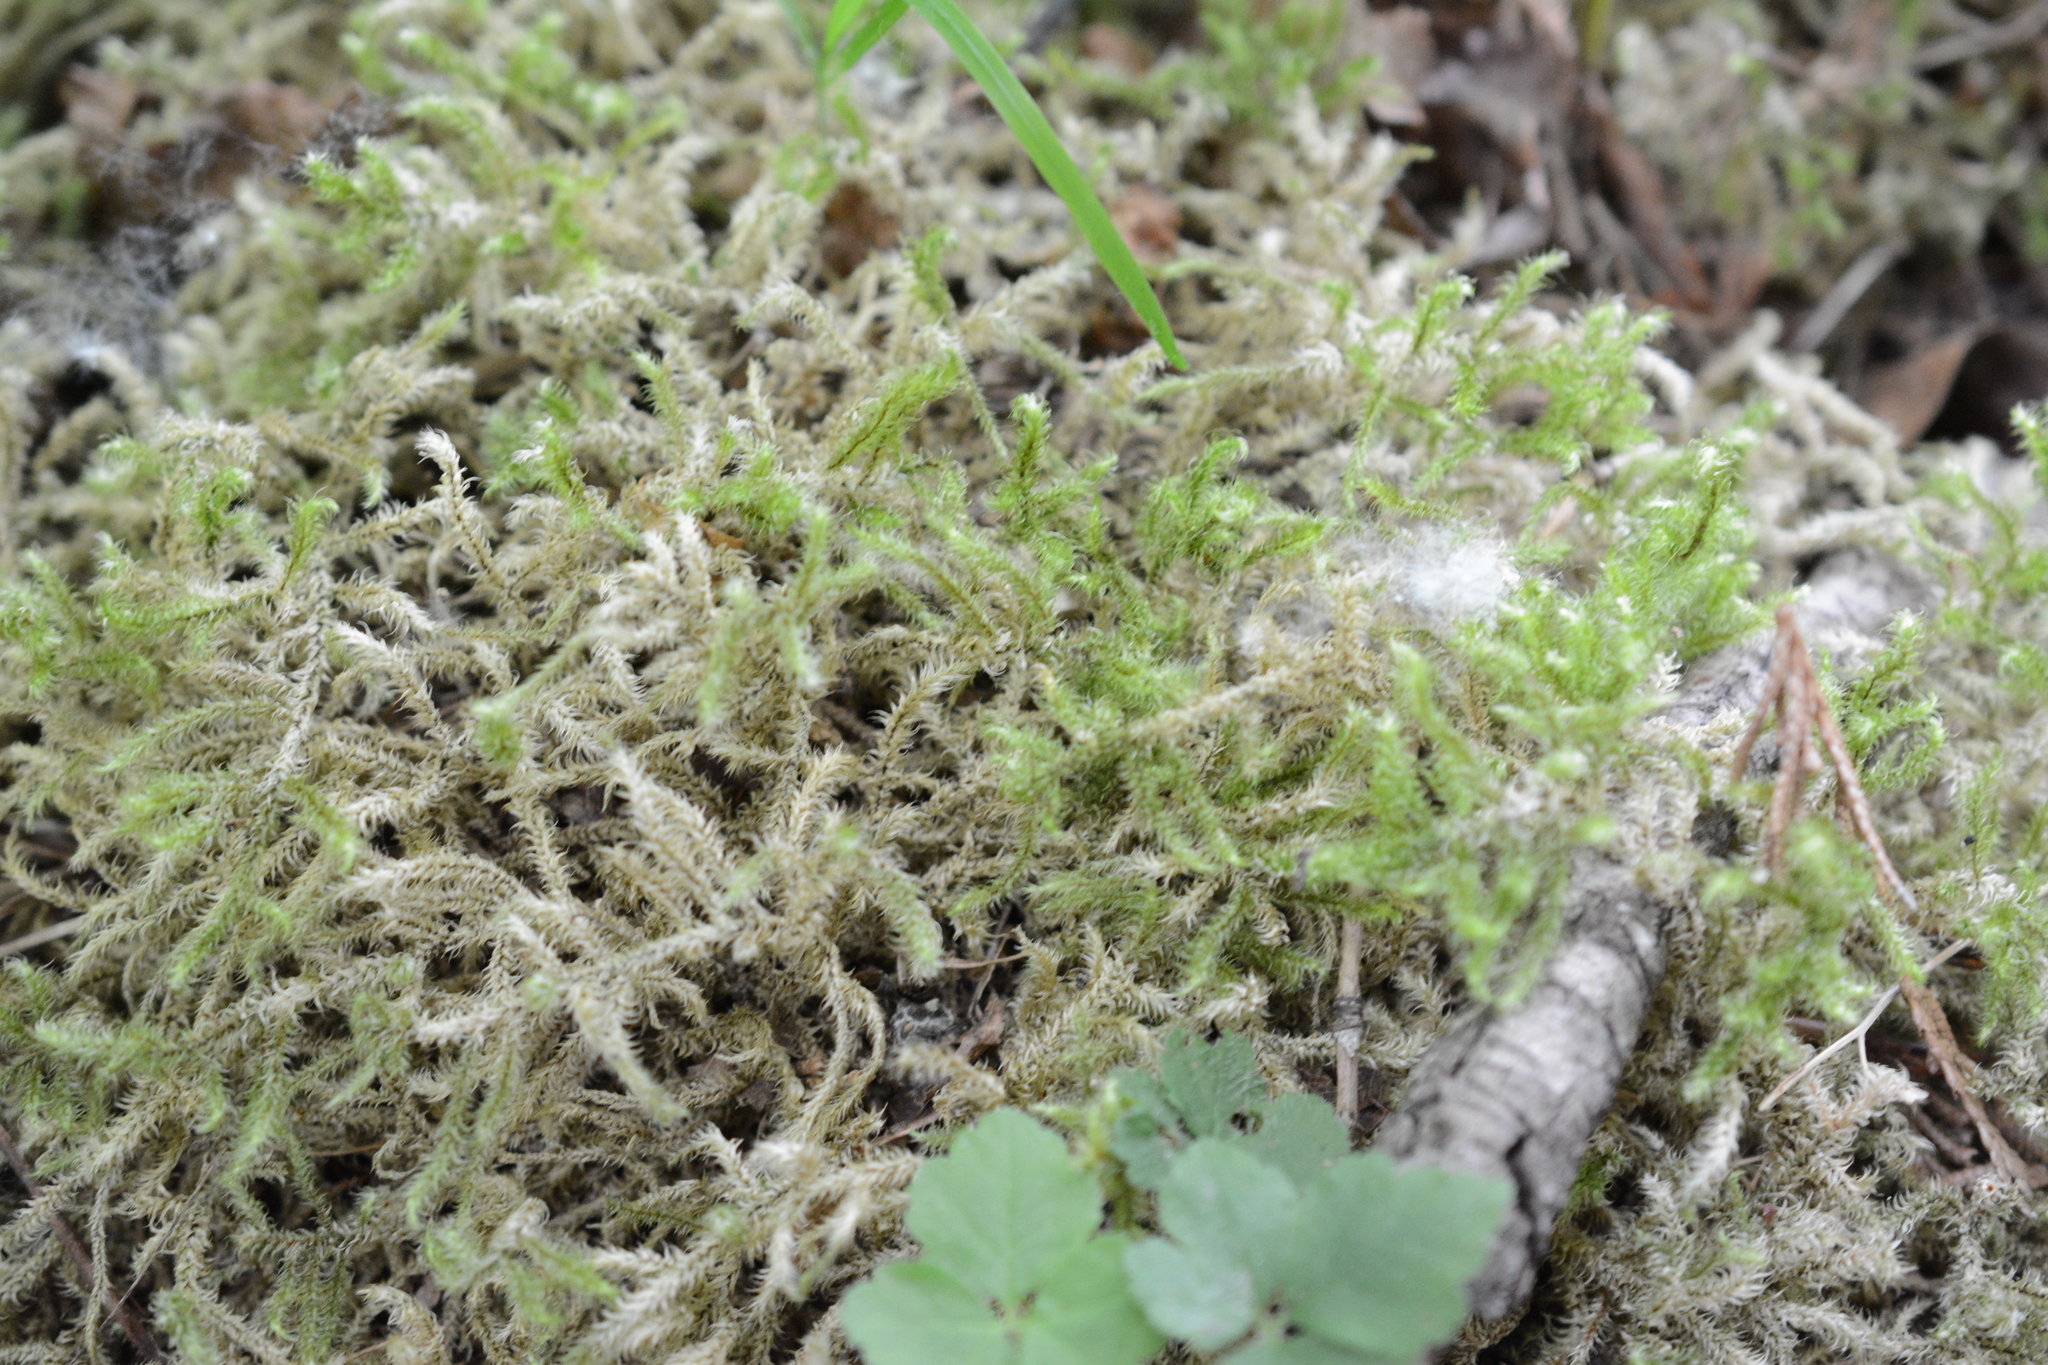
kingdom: Plantae
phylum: Bryophyta
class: Bryopsida
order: Hypnales
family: Hylocomiaceae
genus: Rhytidiadelphus
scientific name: Rhytidiadelphus loreus
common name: Lanky moss
